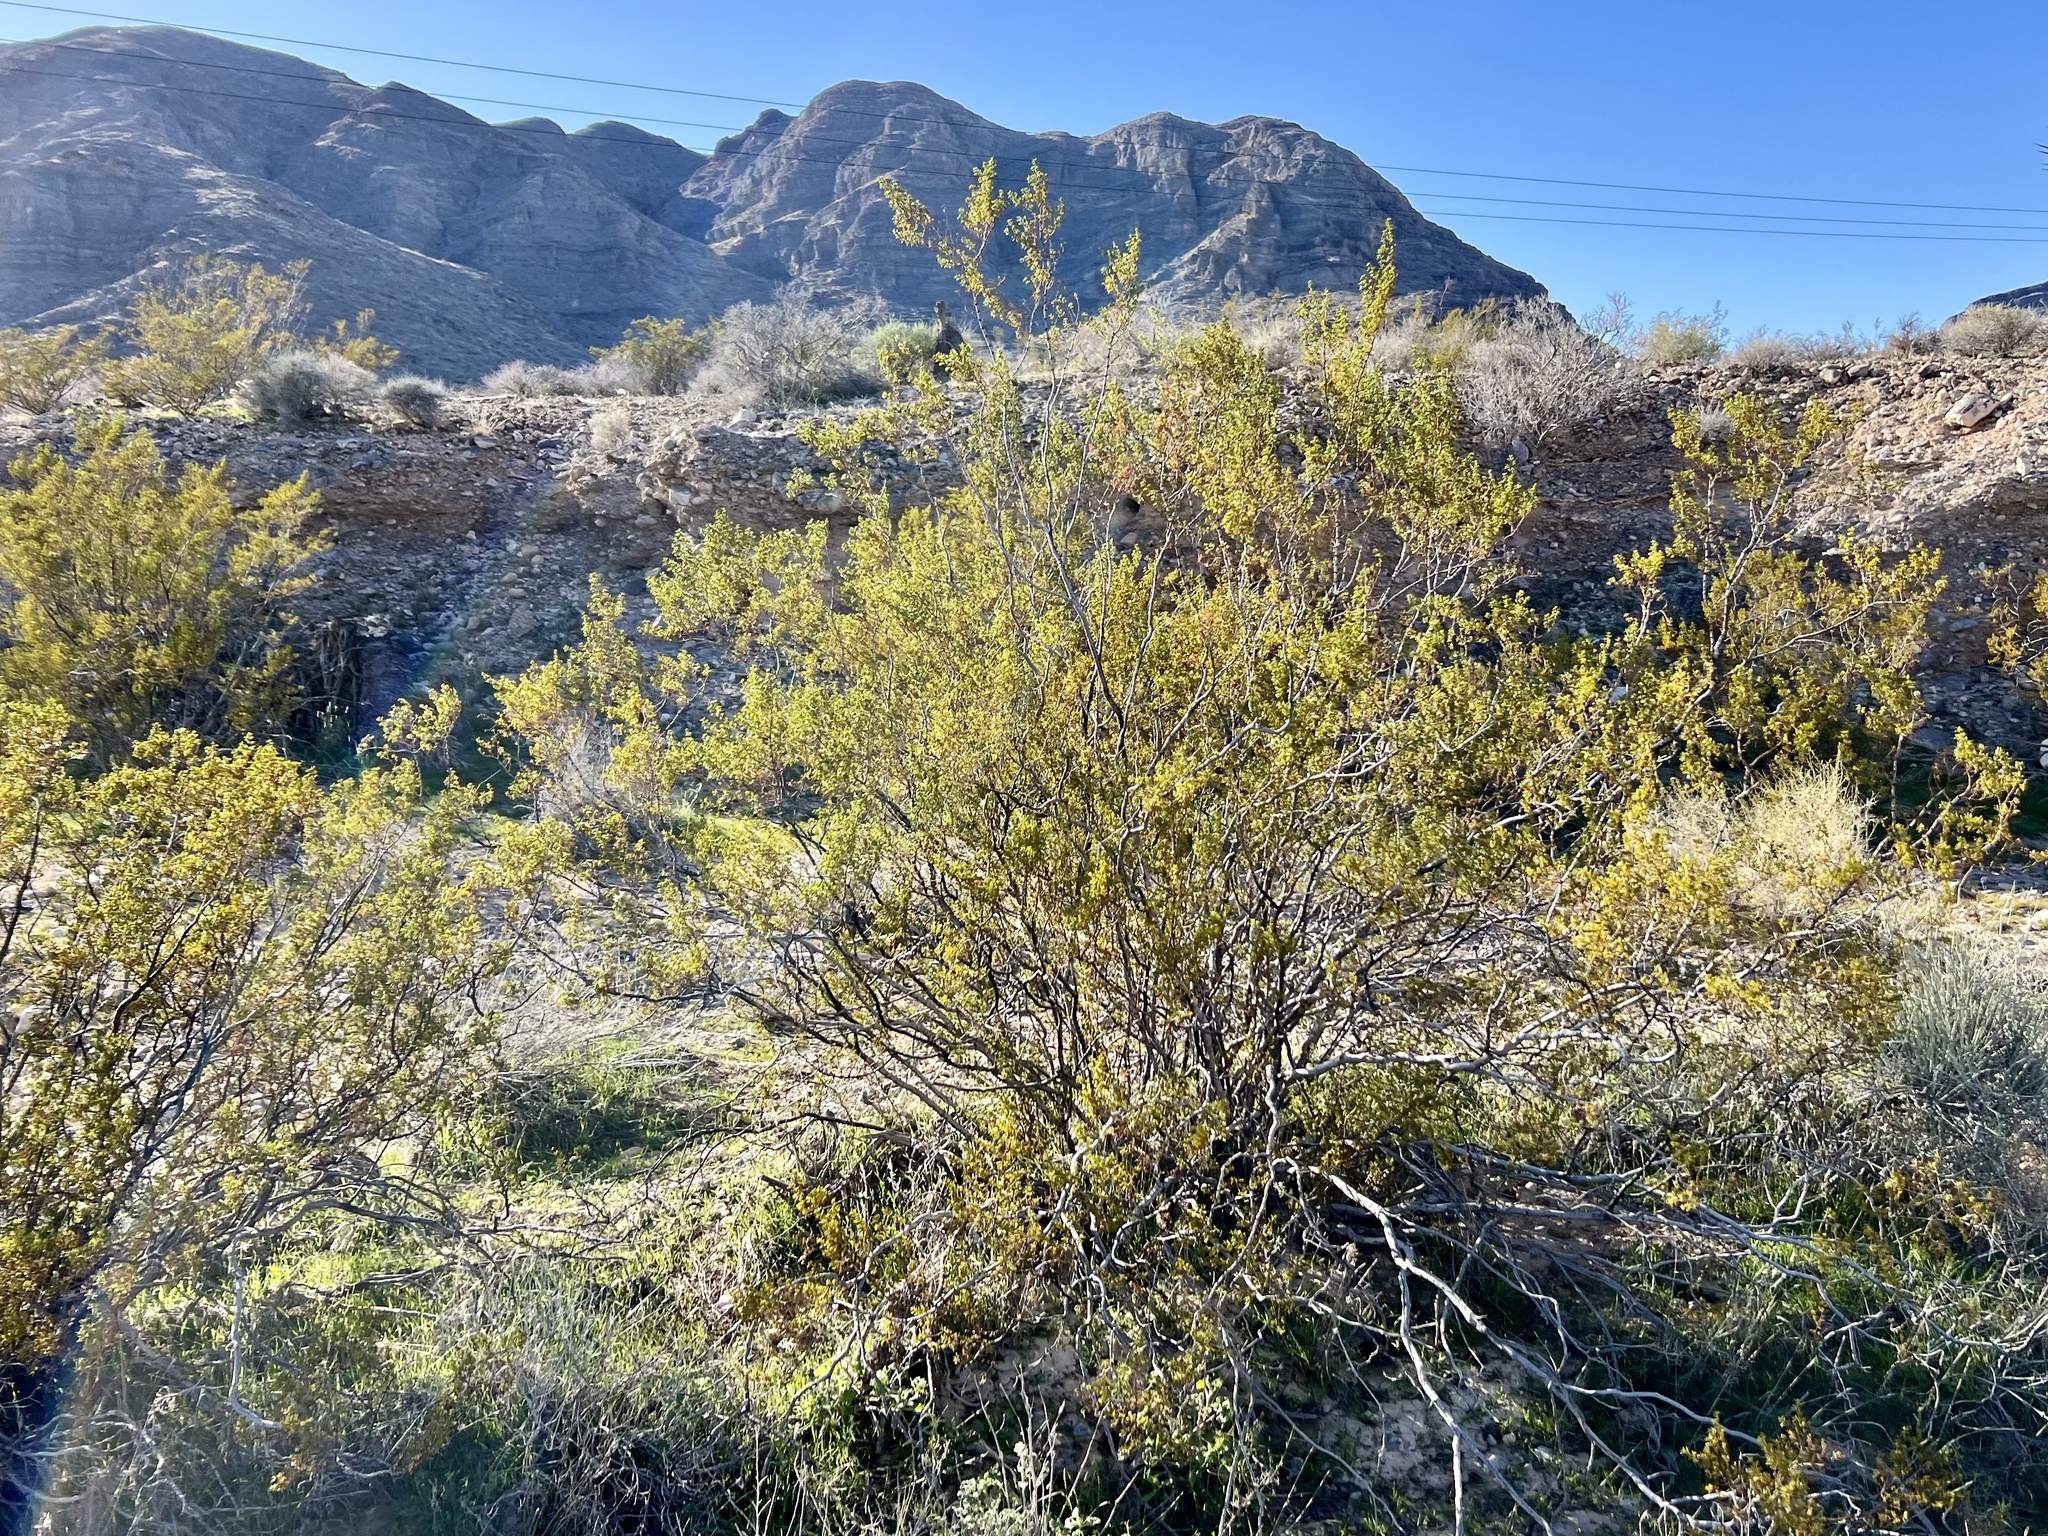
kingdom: Plantae
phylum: Tracheophyta
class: Magnoliopsida
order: Zygophyllales
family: Zygophyllaceae
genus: Larrea
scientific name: Larrea tridentata
